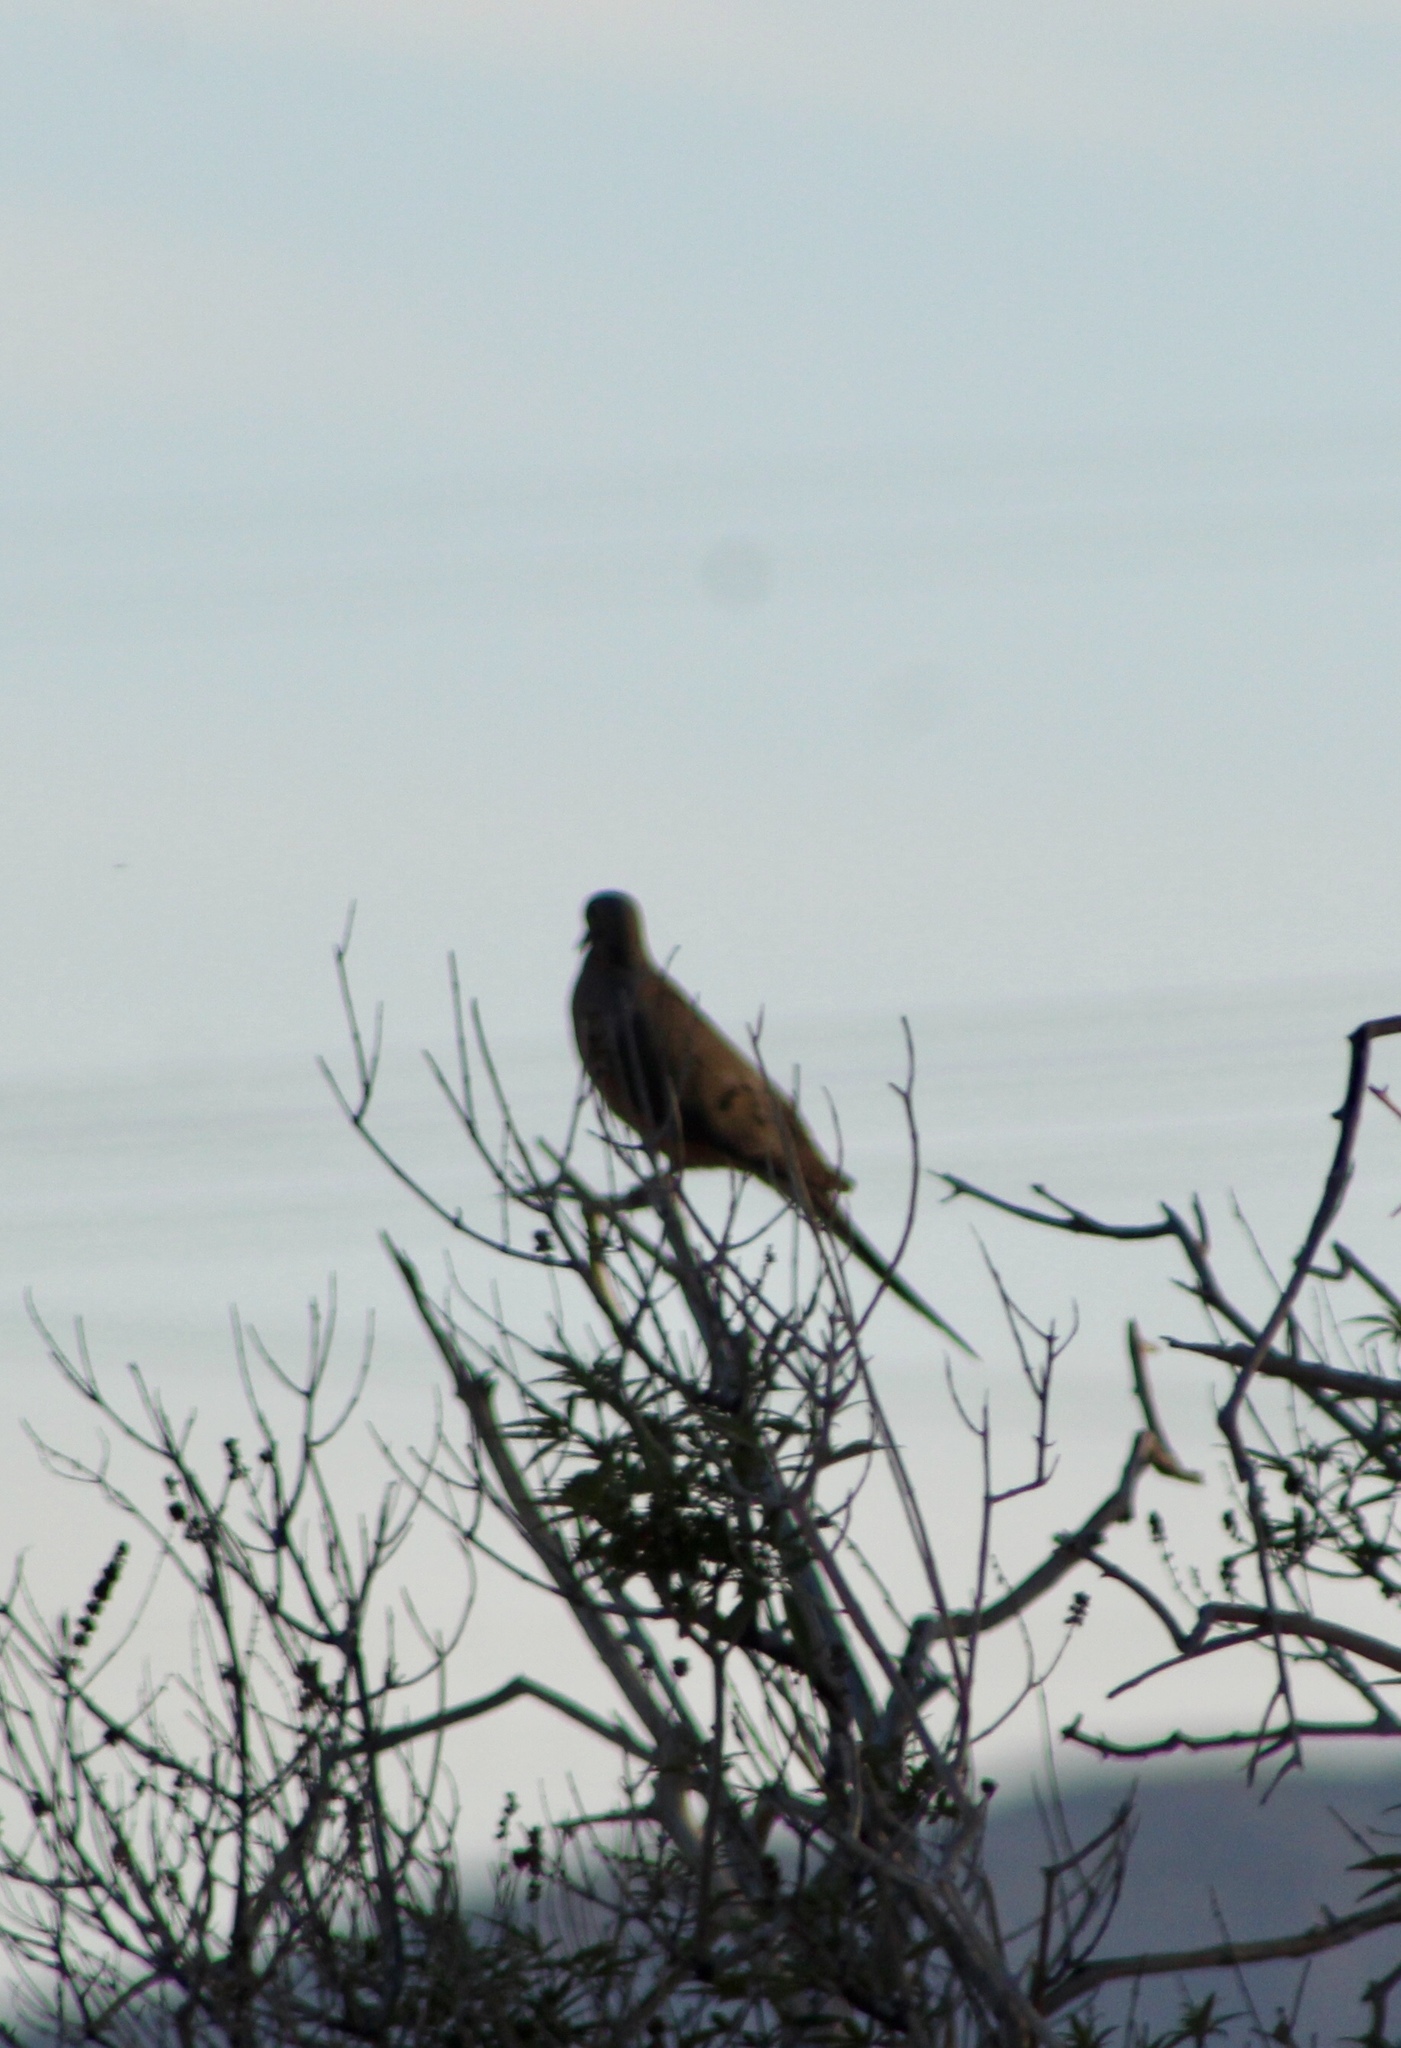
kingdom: Animalia
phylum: Chordata
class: Aves
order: Columbiformes
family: Columbidae
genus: Zenaida
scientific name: Zenaida macroura
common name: Mourning dove
